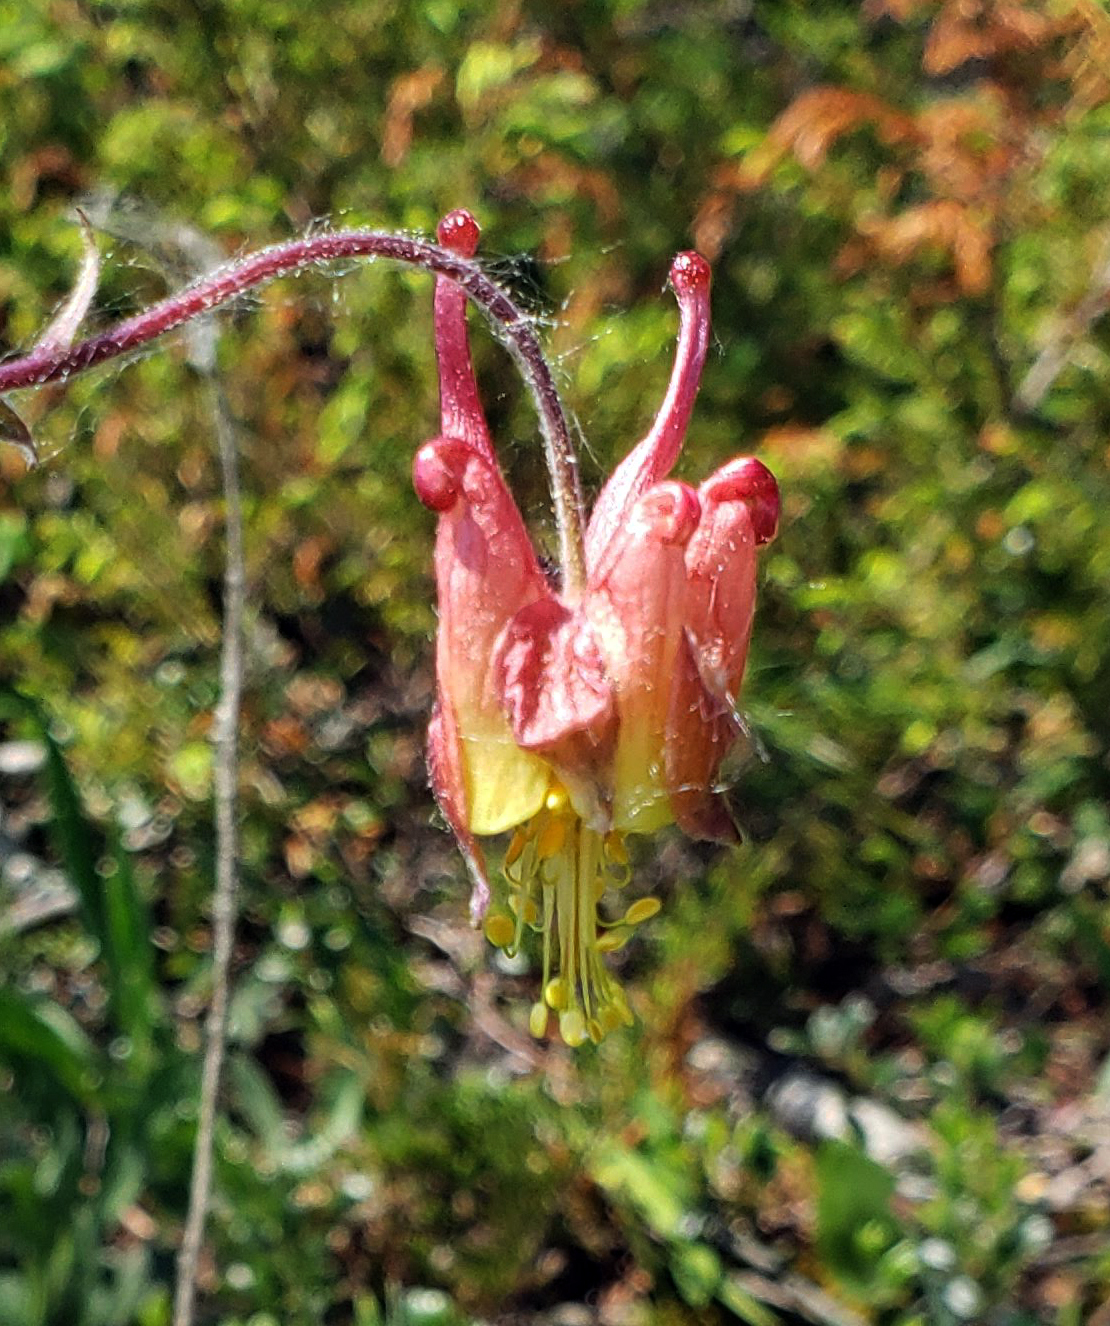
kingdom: Plantae
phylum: Tracheophyta
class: Magnoliopsida
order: Ranunculales
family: Ranunculaceae
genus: Aquilegia
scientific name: Aquilegia canadensis
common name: American columbine
